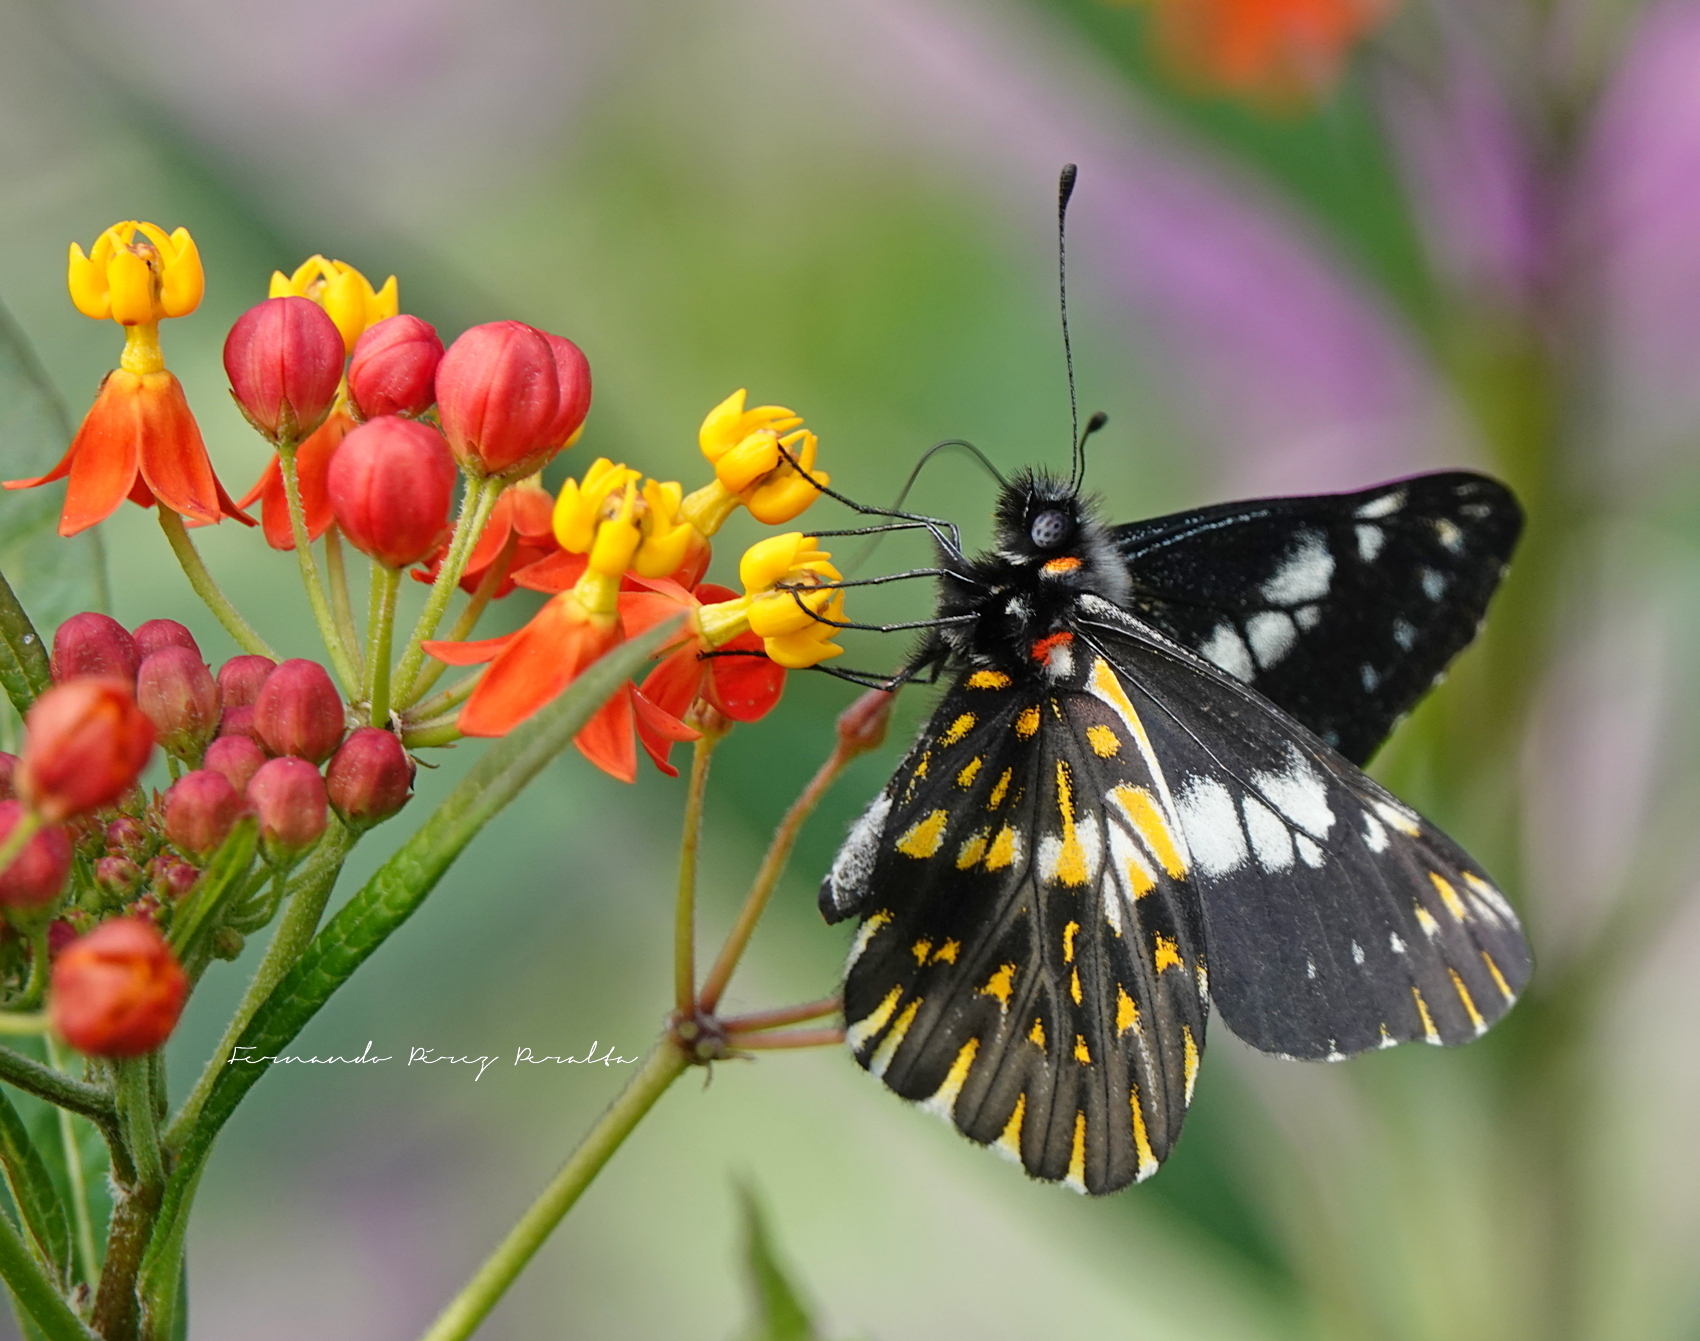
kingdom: Animalia
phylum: Arthropoda
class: Insecta
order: Lepidoptera
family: Pieridae
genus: Archonias
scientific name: Archonias teutila
